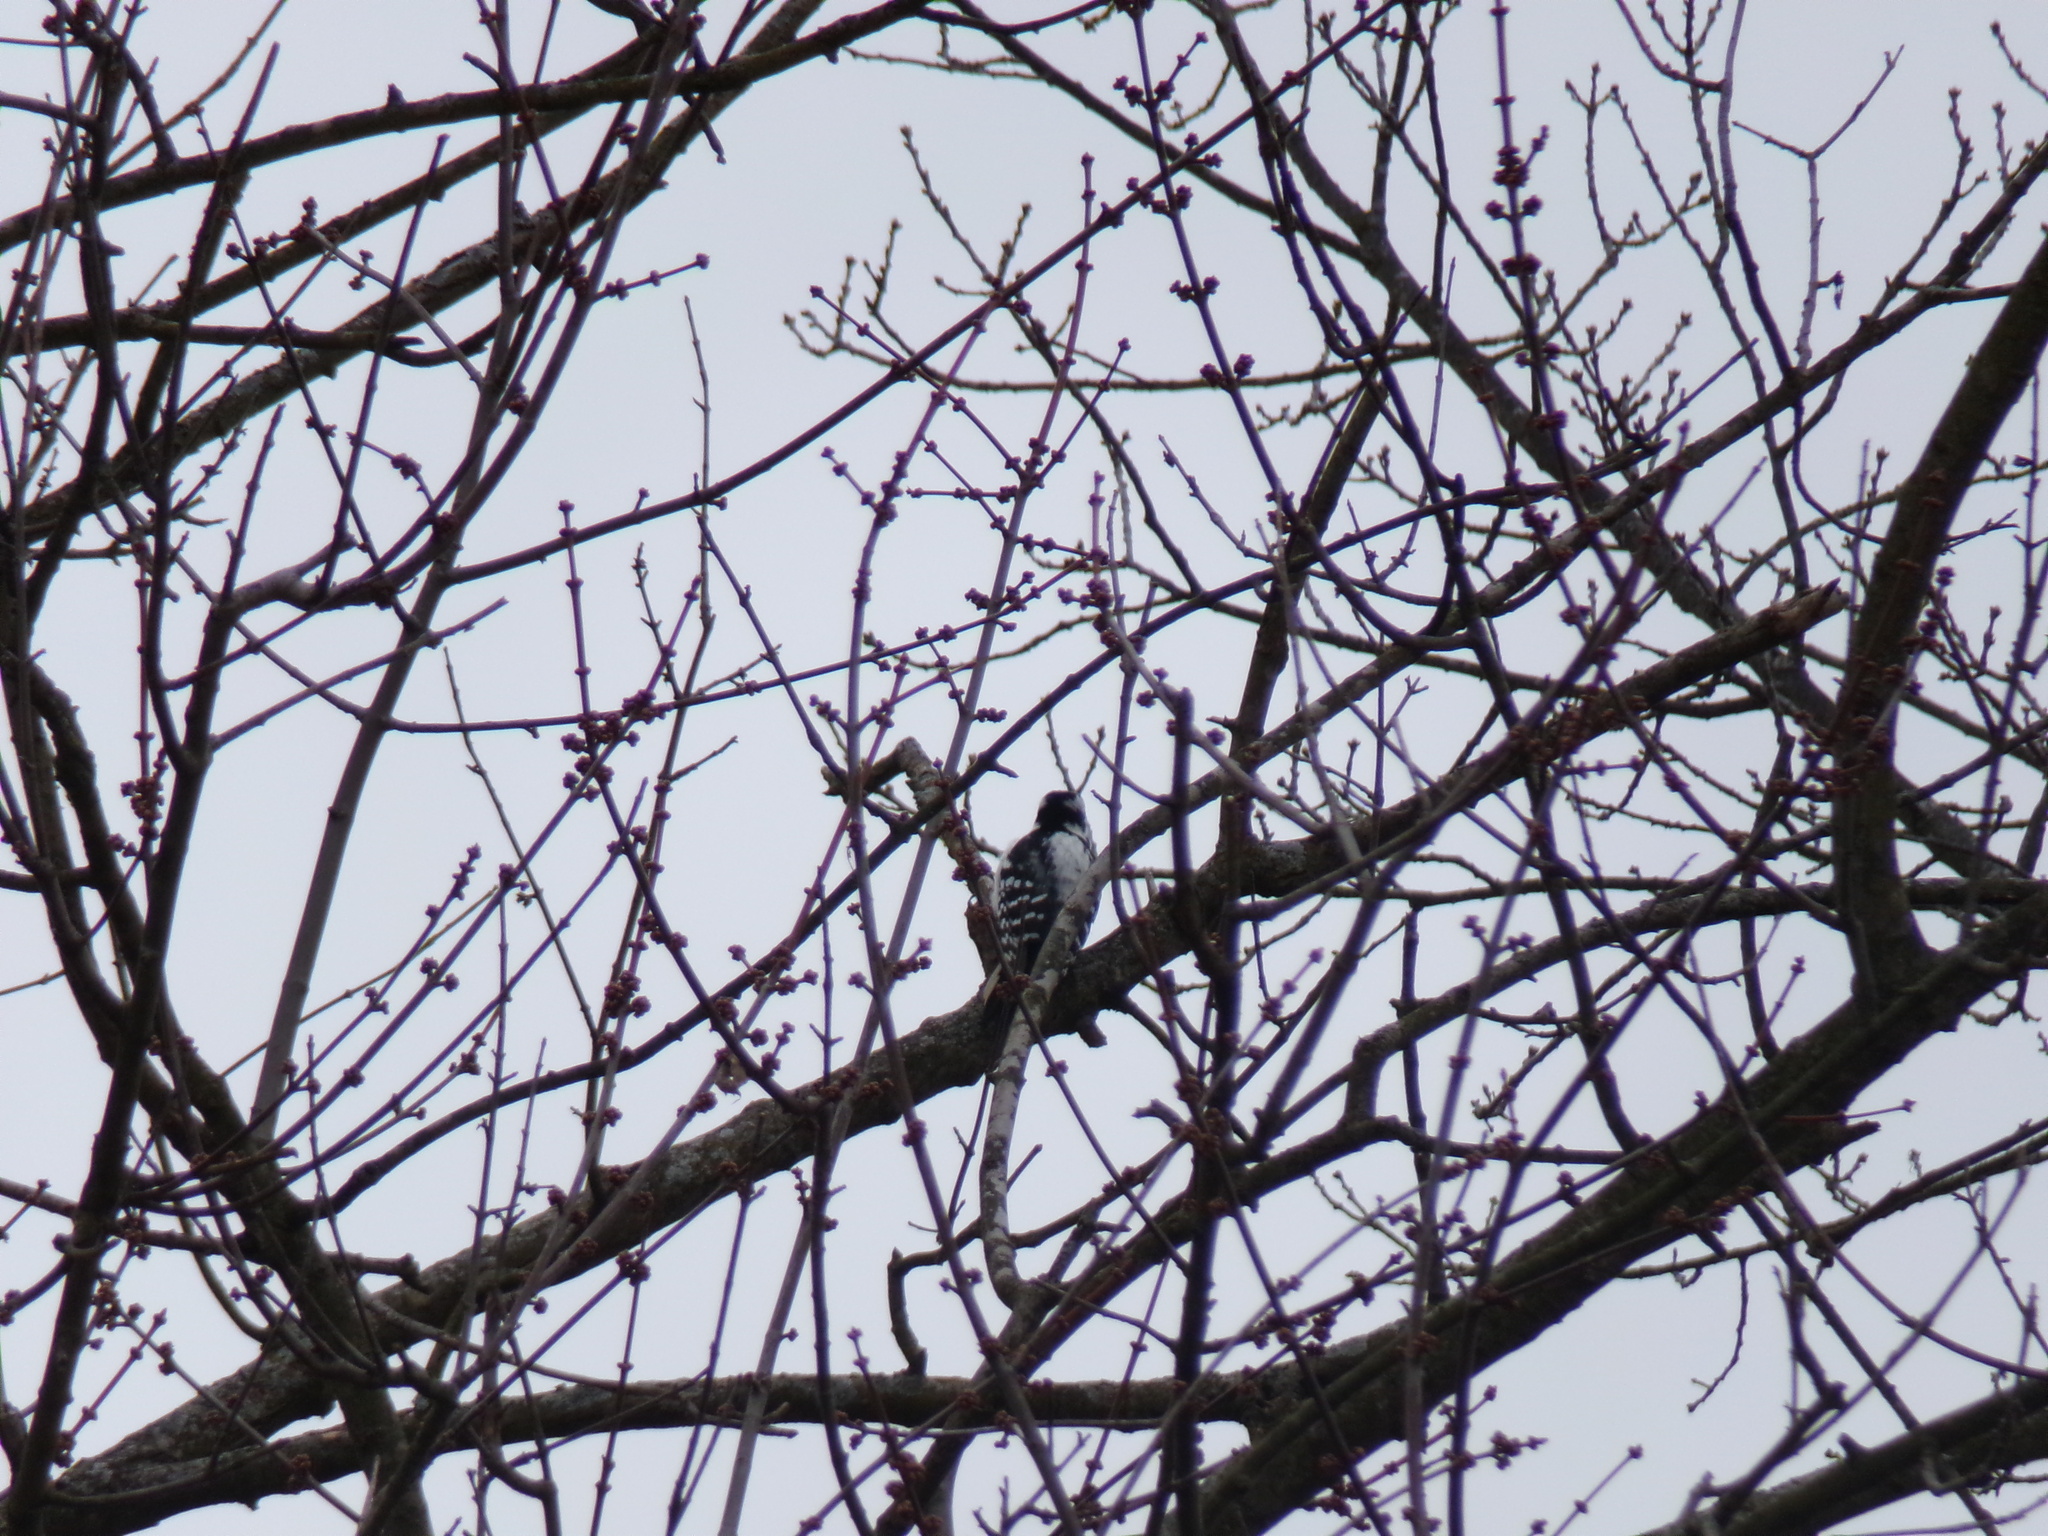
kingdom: Animalia
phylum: Chordata
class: Aves
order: Piciformes
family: Picidae
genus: Leuconotopicus
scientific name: Leuconotopicus villosus
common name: Hairy woodpecker
